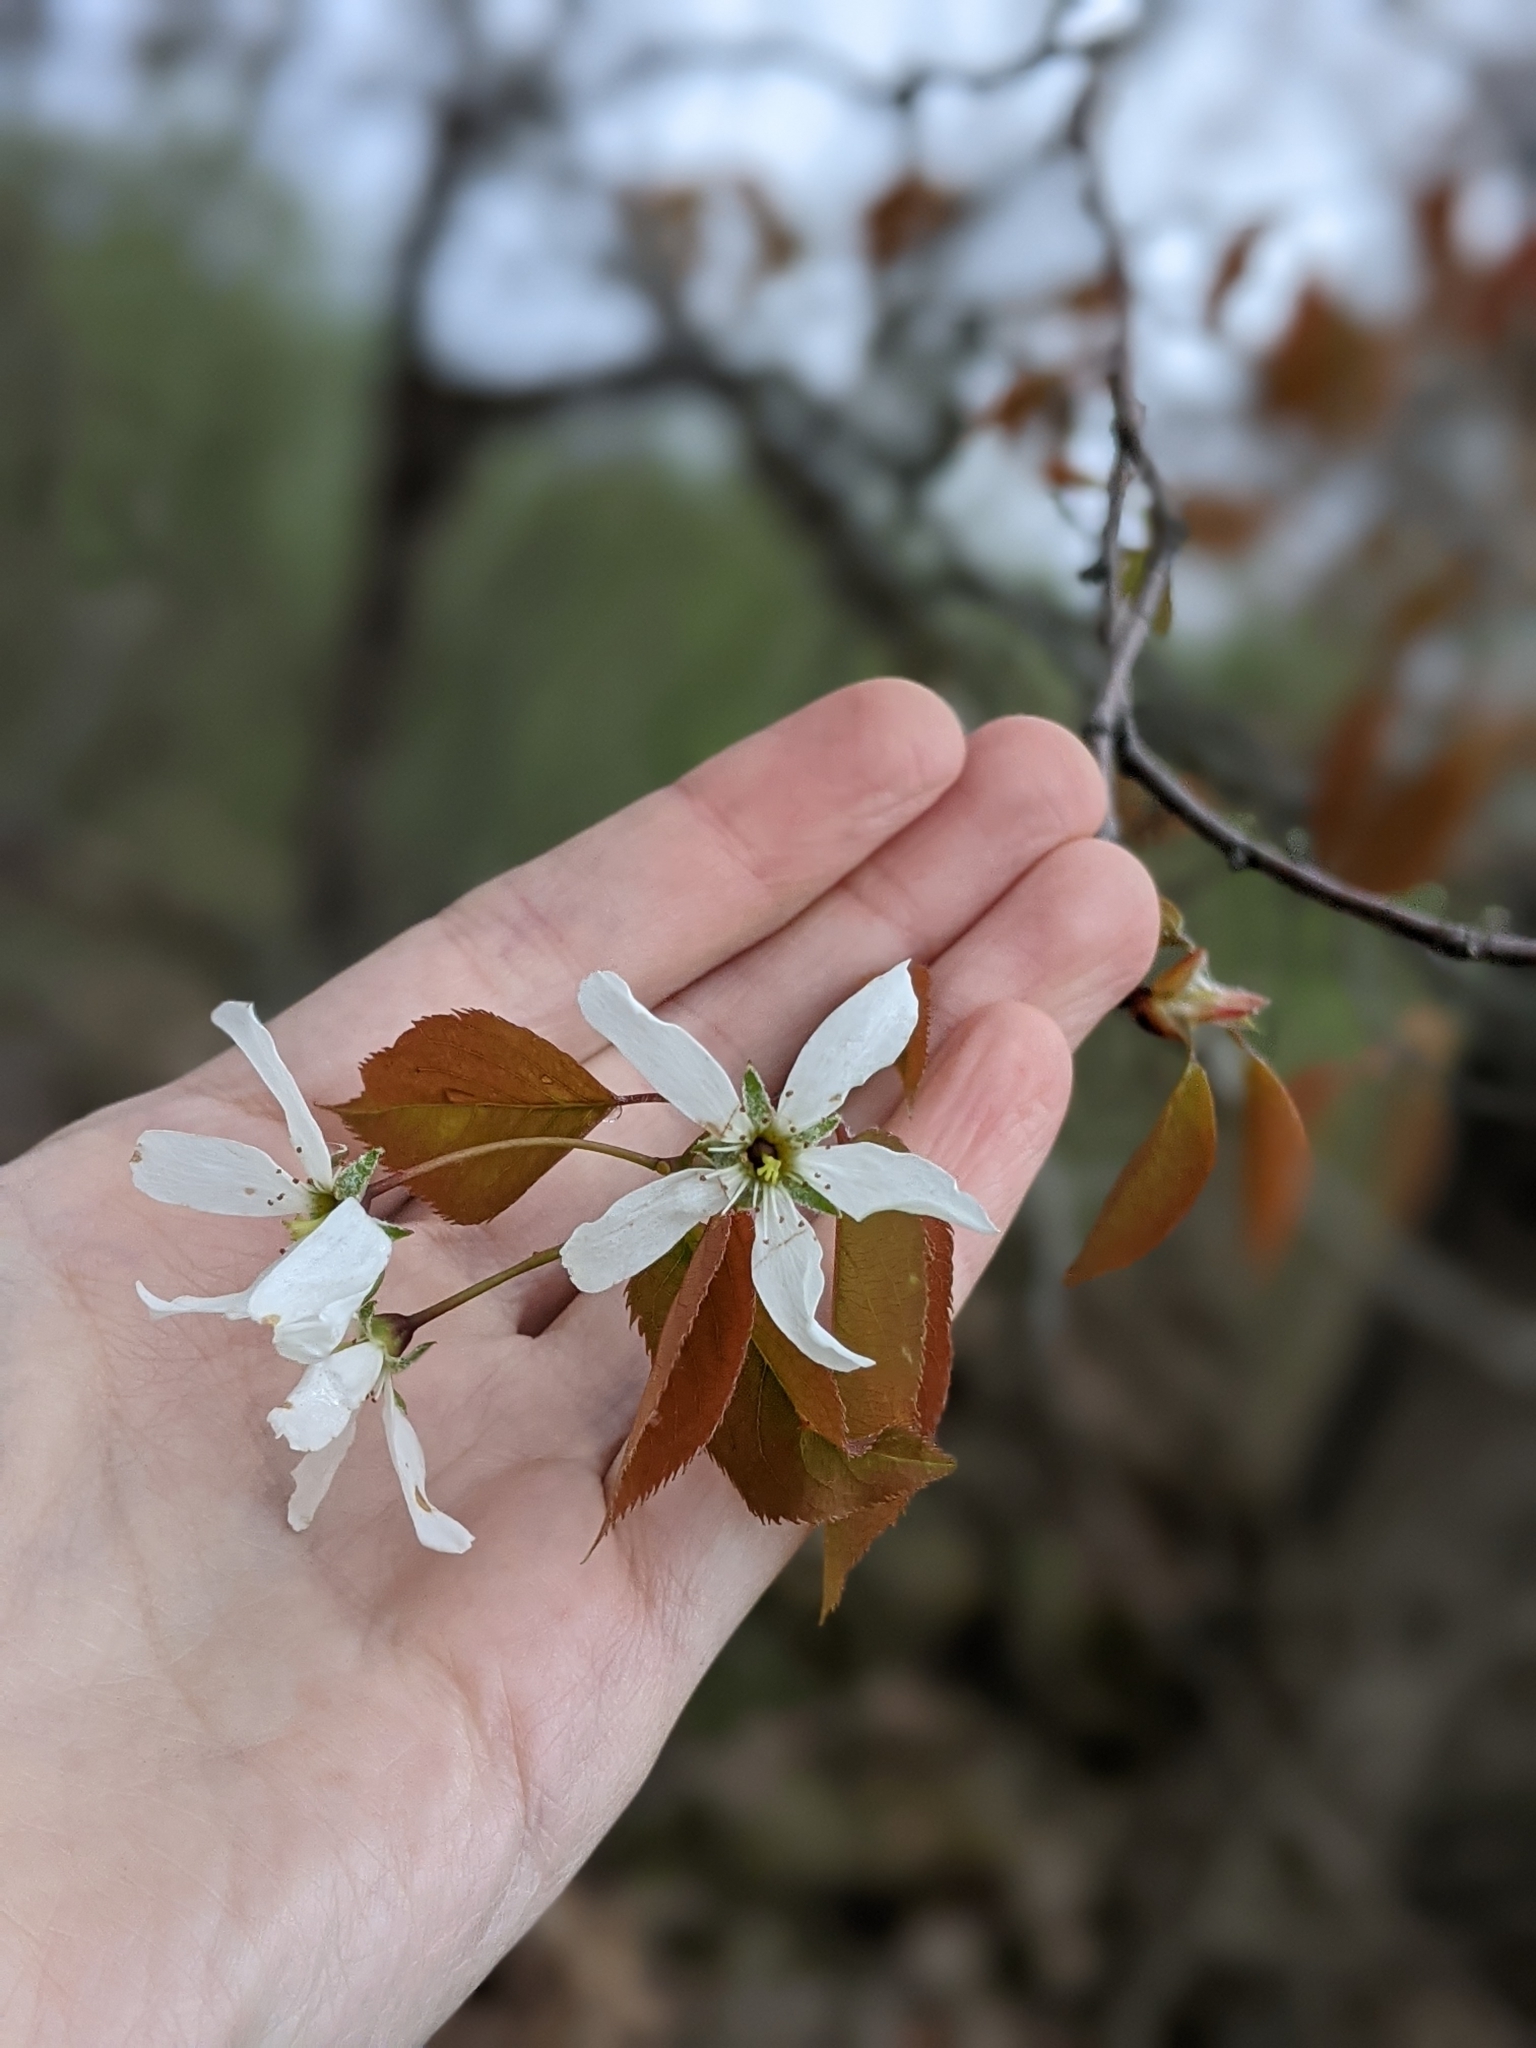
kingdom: Plantae
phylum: Tracheophyta
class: Magnoliopsida
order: Rosales
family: Rosaceae
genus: Amelanchier
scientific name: Amelanchier laevis
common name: Allegheny serviceberry
